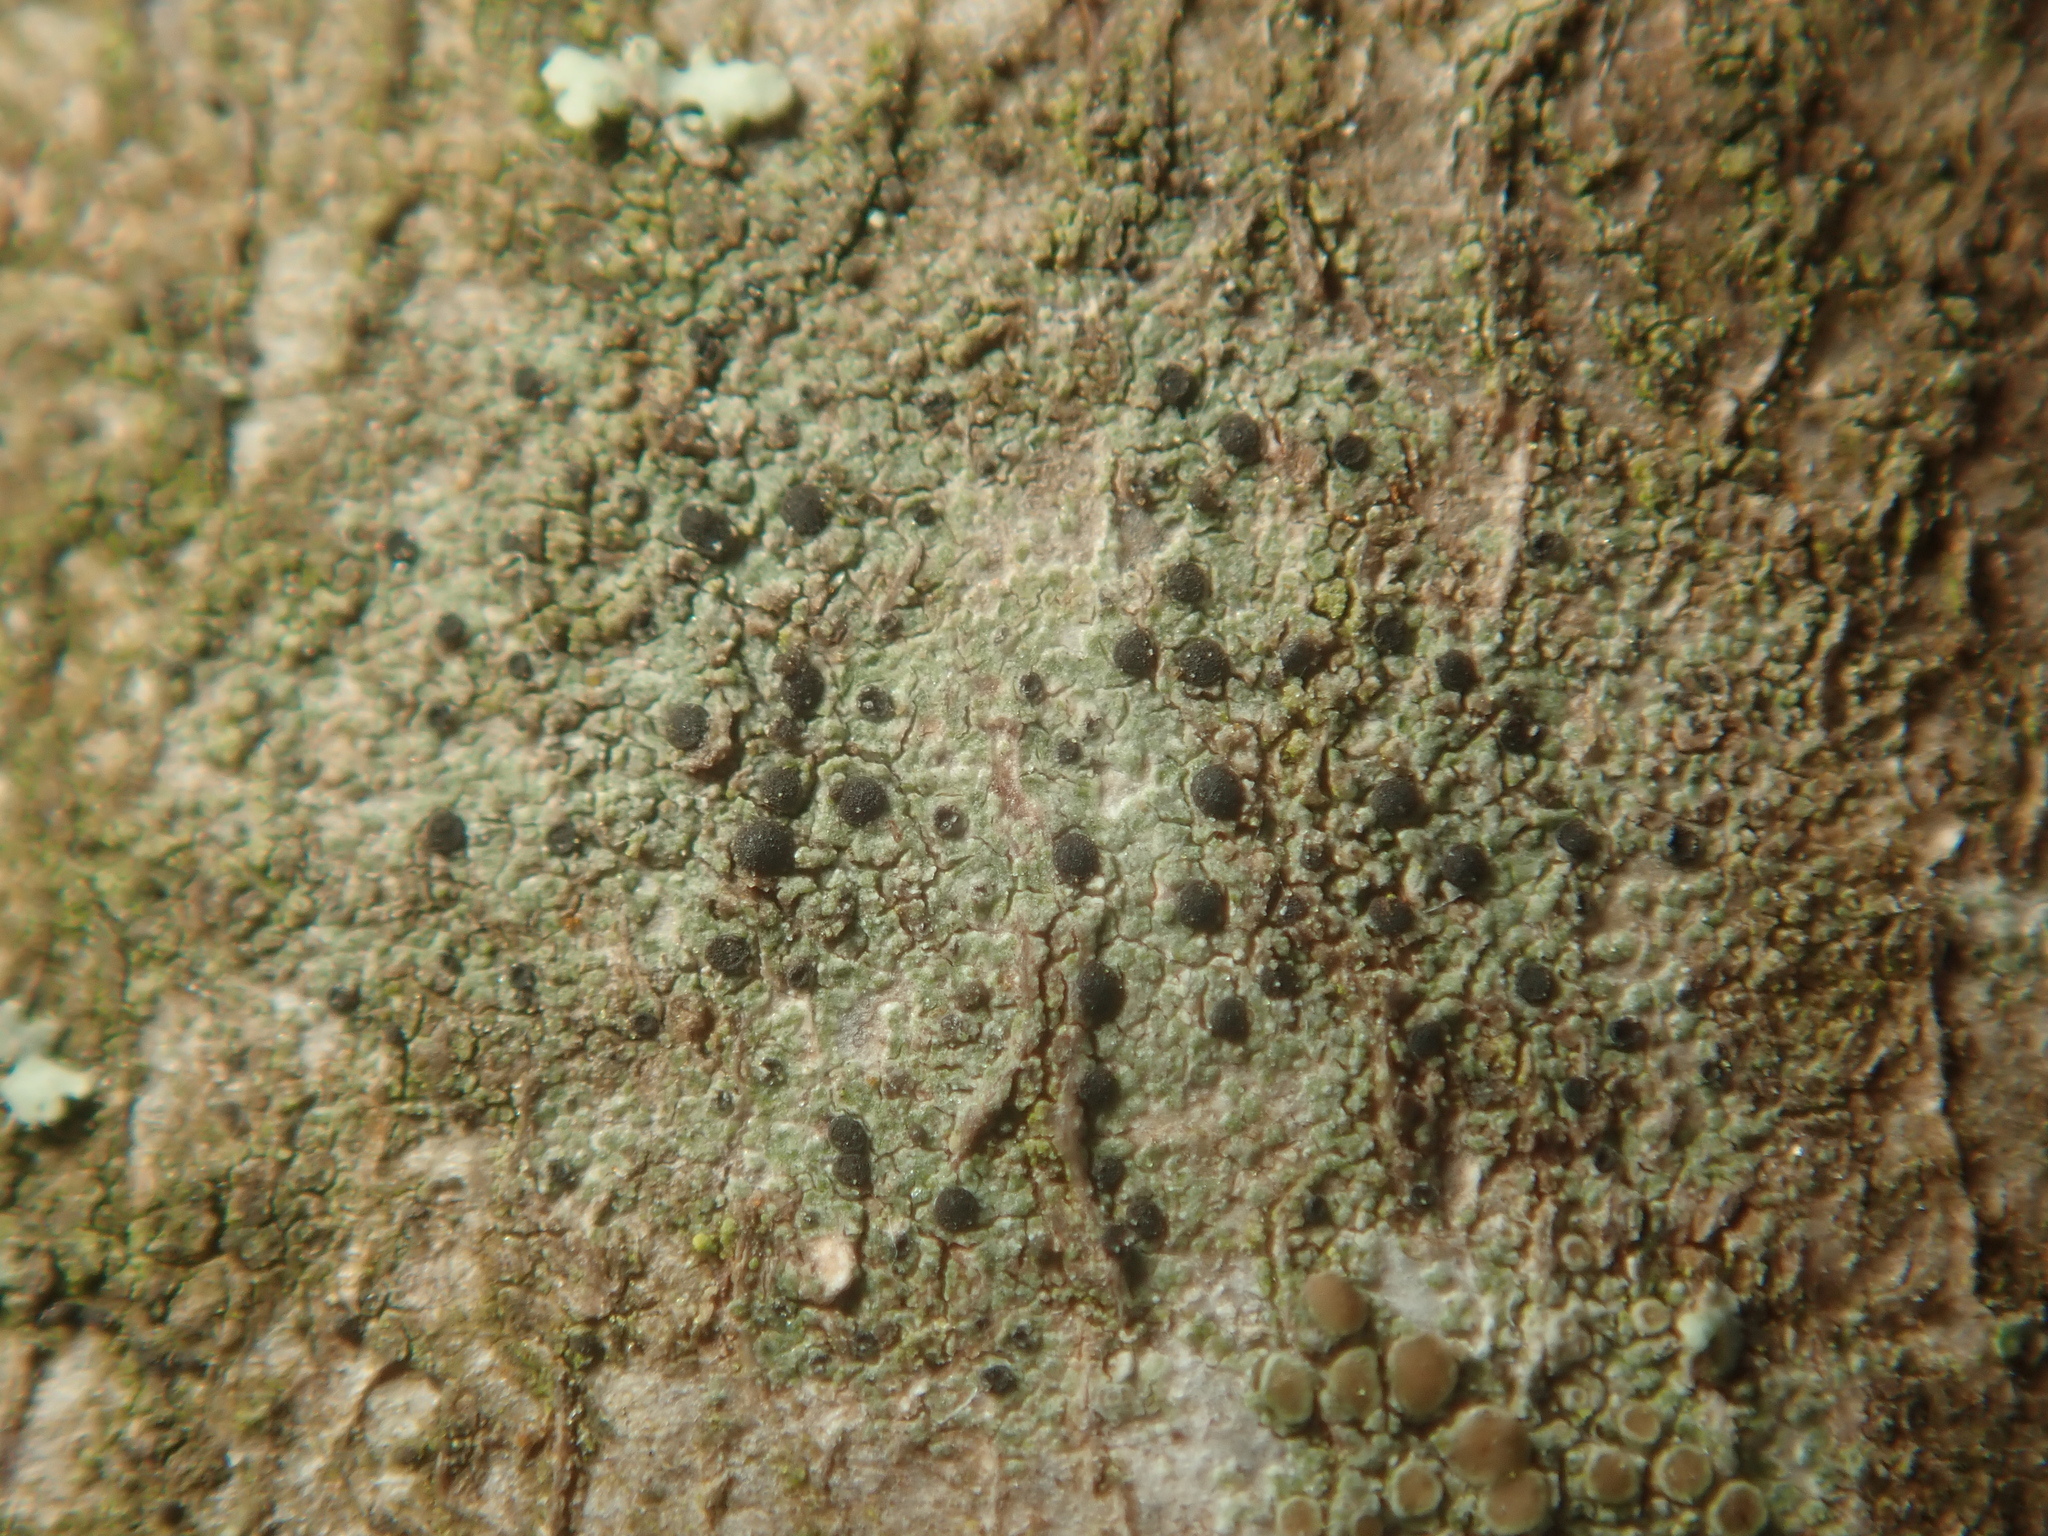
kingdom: Fungi
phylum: Ascomycota
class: Lecanoromycetes
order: Lecanorales
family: Ramalinaceae
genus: Lecania
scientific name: Lecania naegelii
